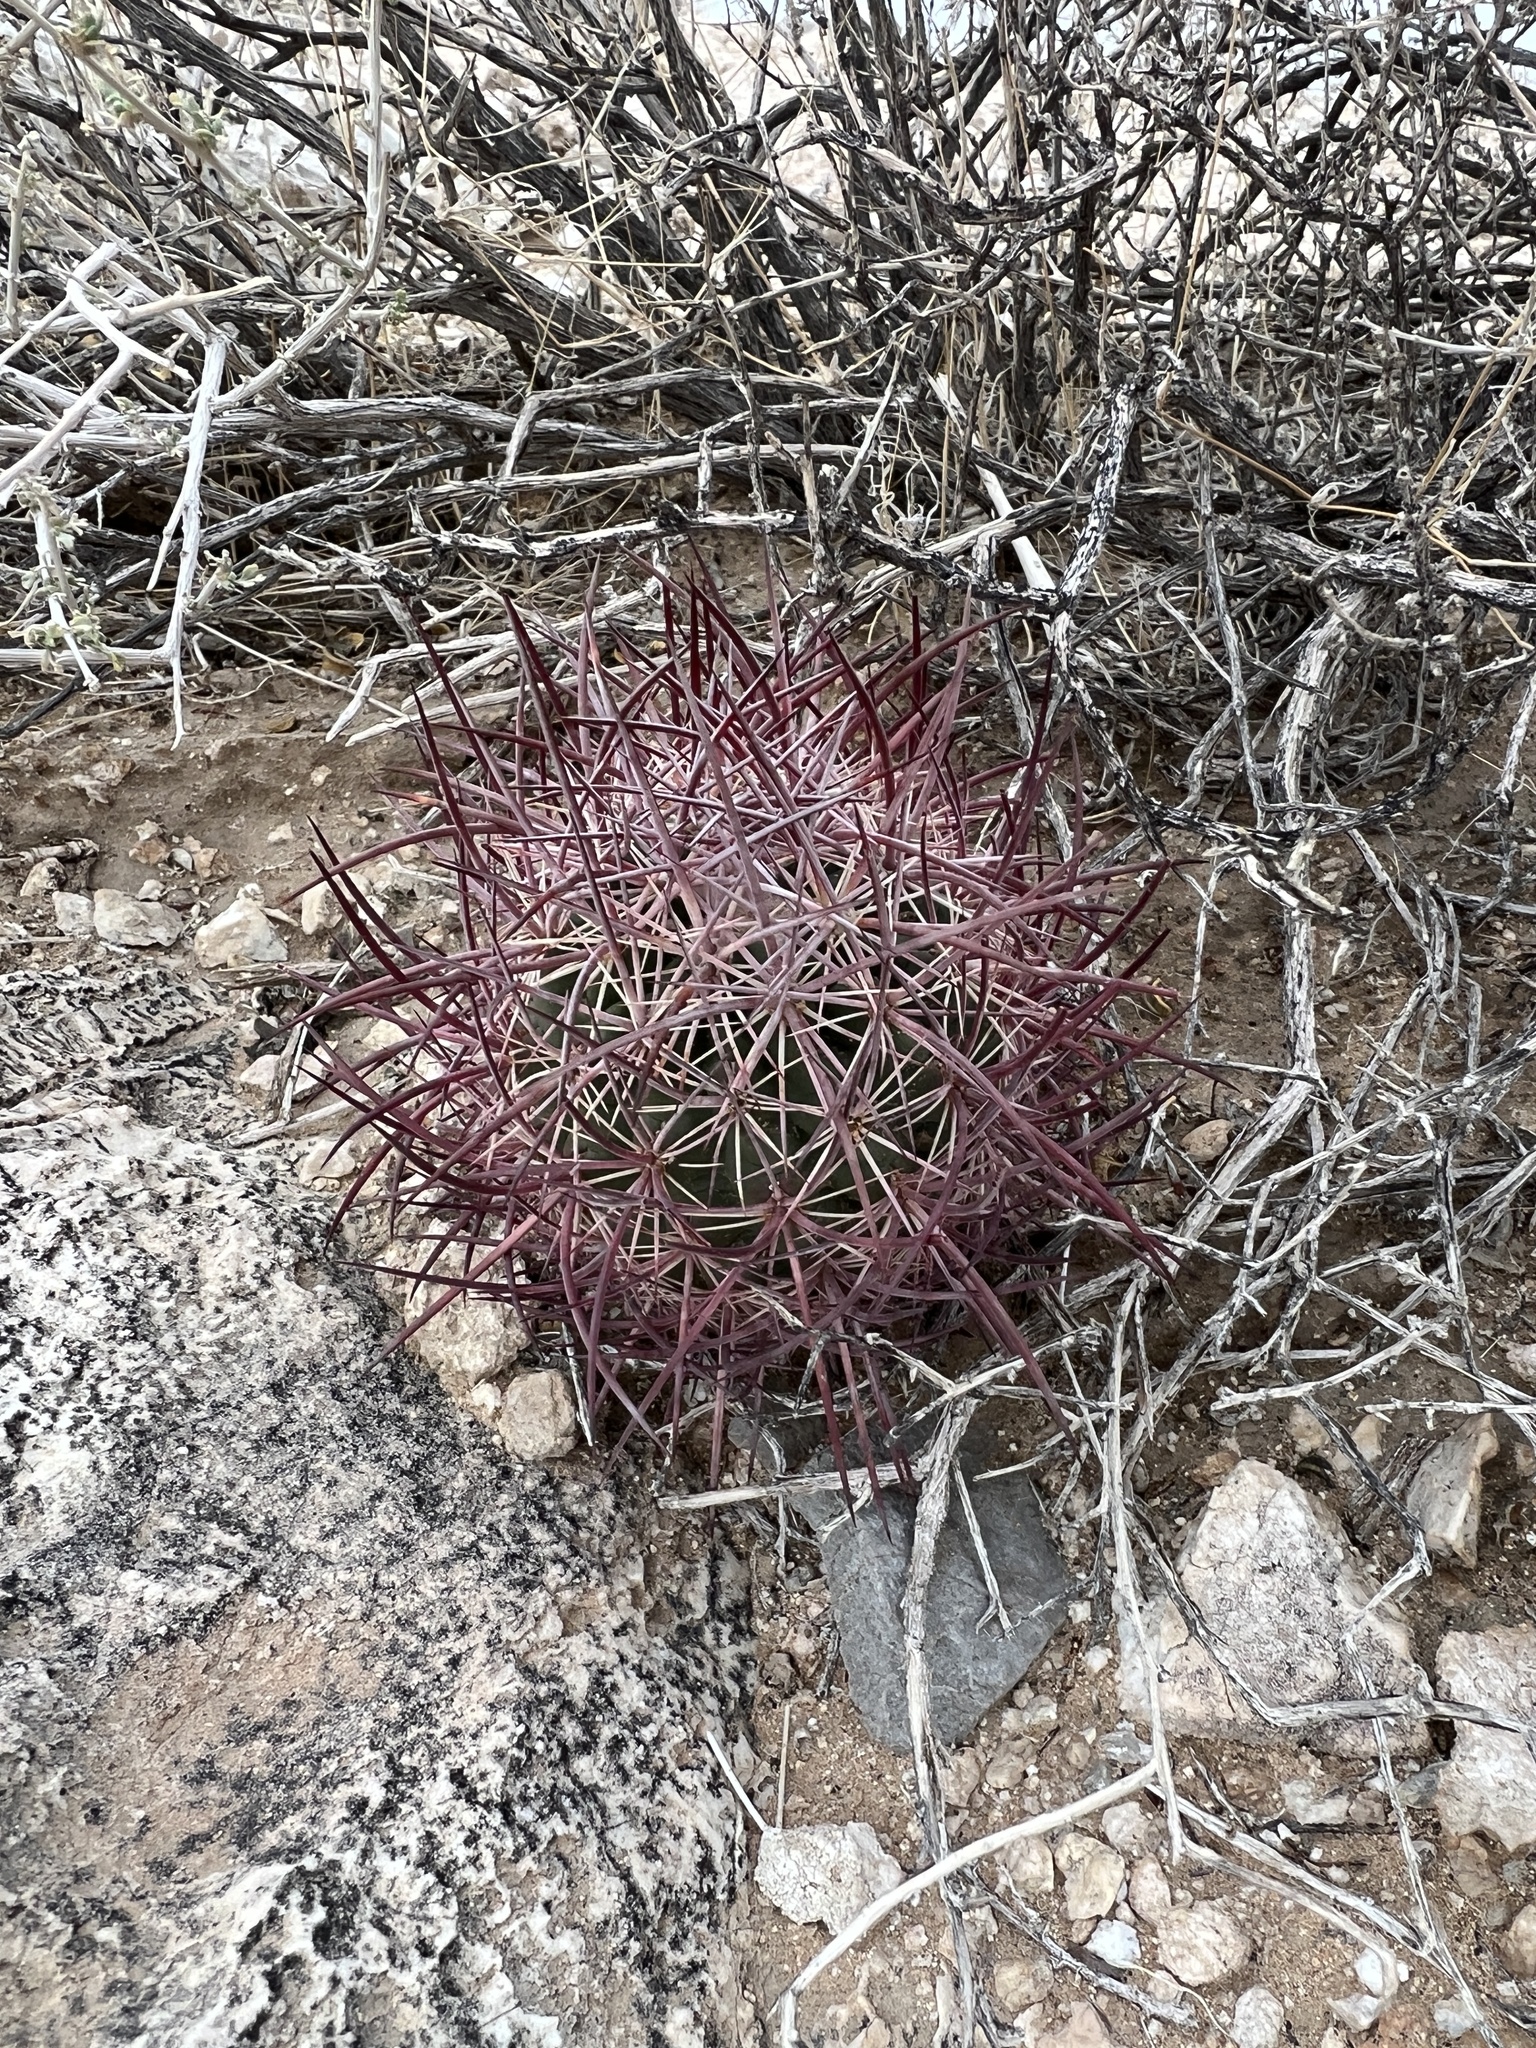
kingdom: Plantae
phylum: Tracheophyta
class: Magnoliopsida
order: Caryophyllales
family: Cactaceae
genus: Sclerocactus
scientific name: Sclerocactus johnsonii
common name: Eight-spine fishhook cactus
